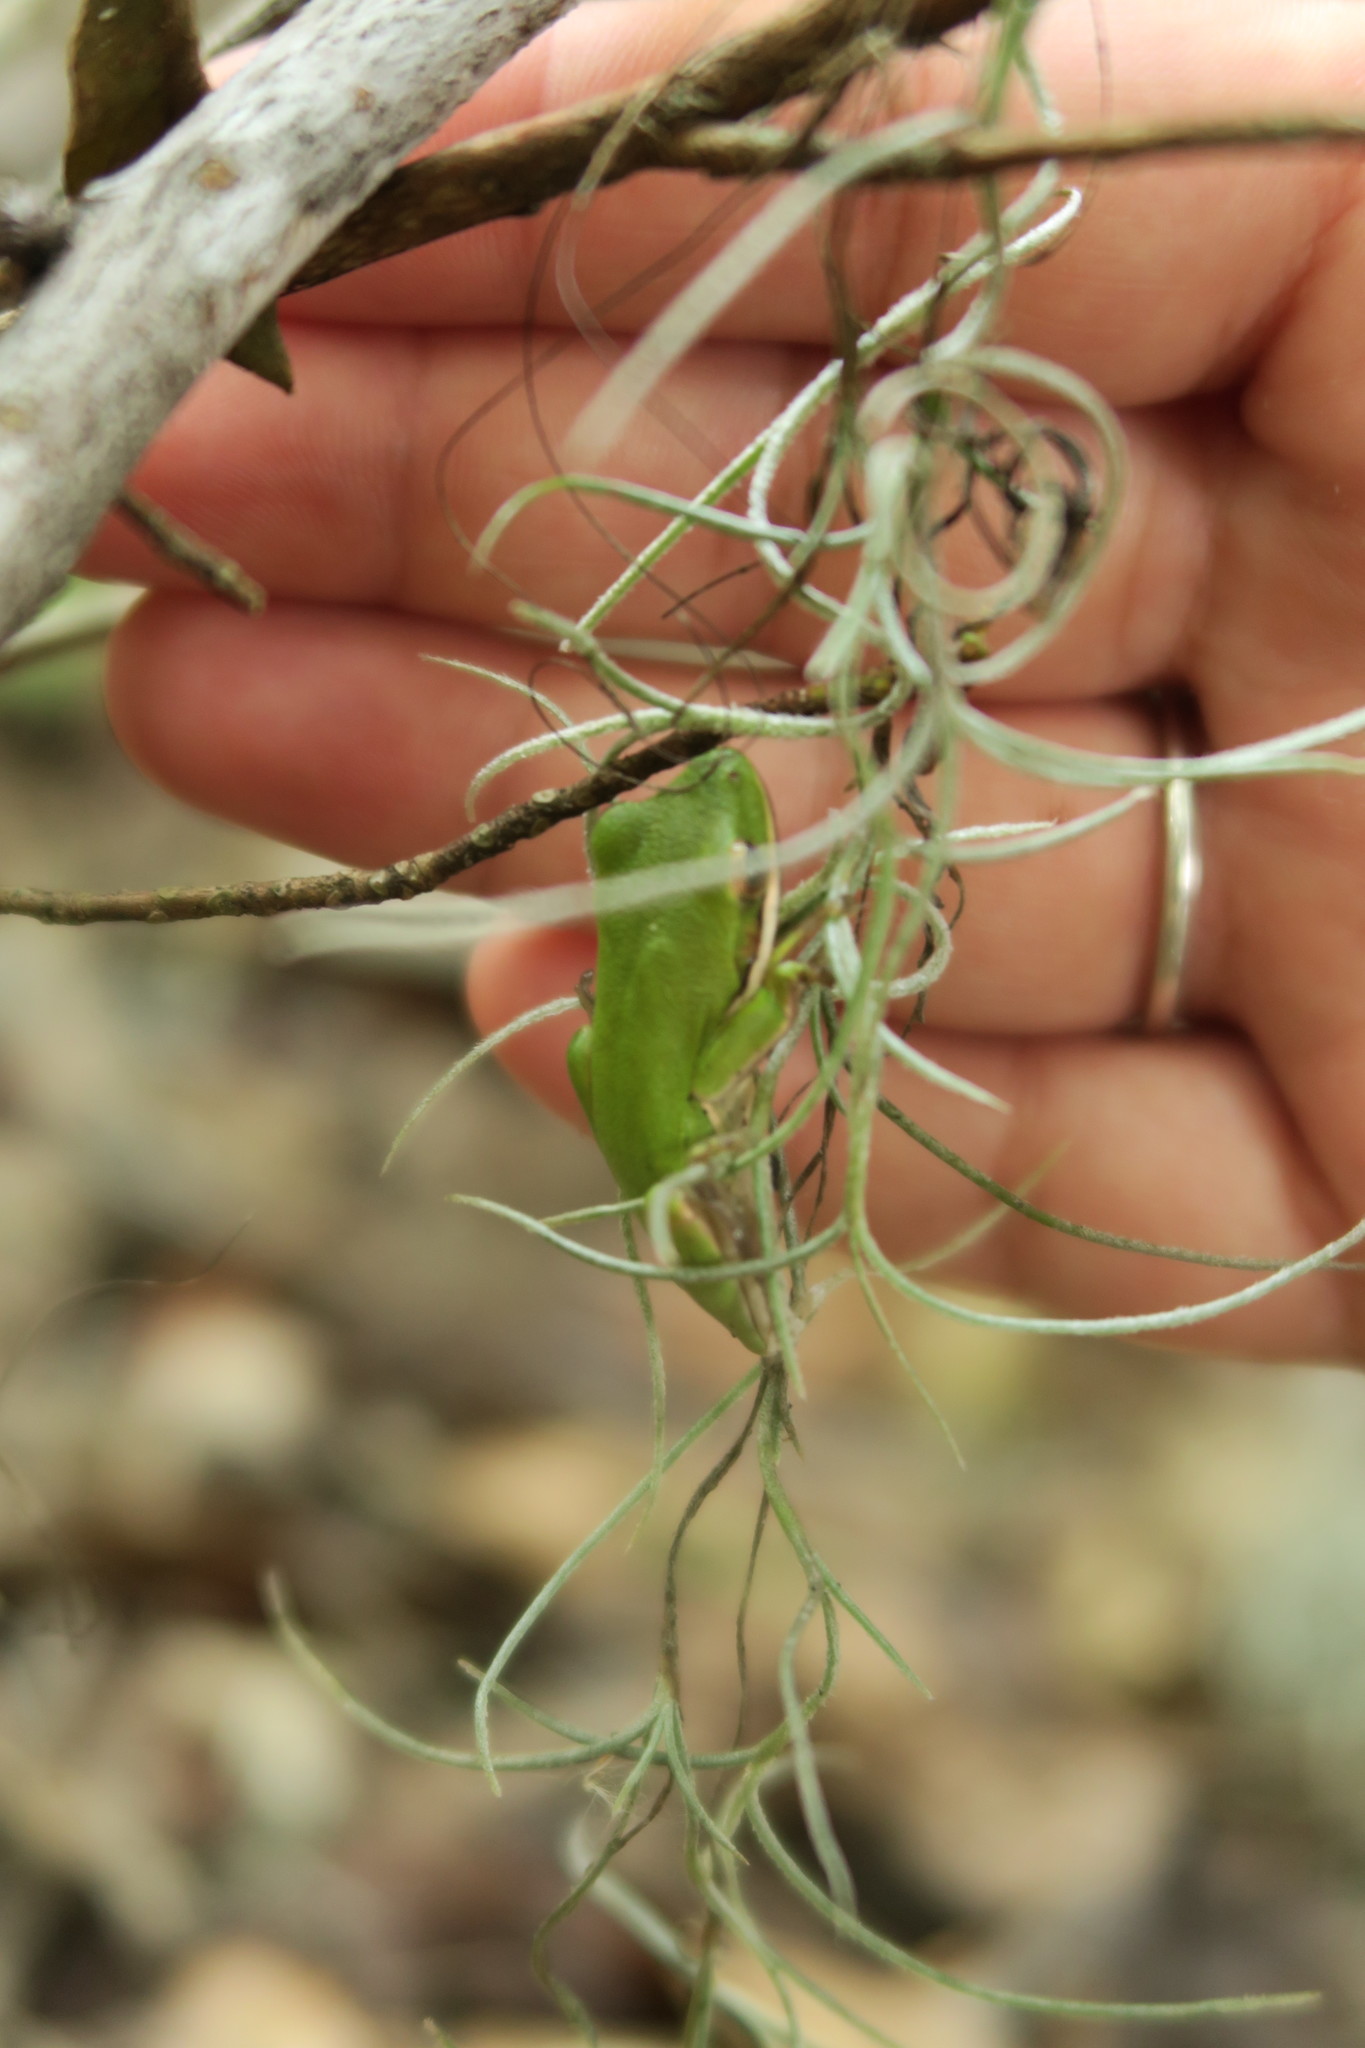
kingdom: Animalia
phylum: Chordata
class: Amphibia
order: Anura
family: Hylidae
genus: Dryophytes
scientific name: Dryophytes cinereus
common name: Green treefrog
